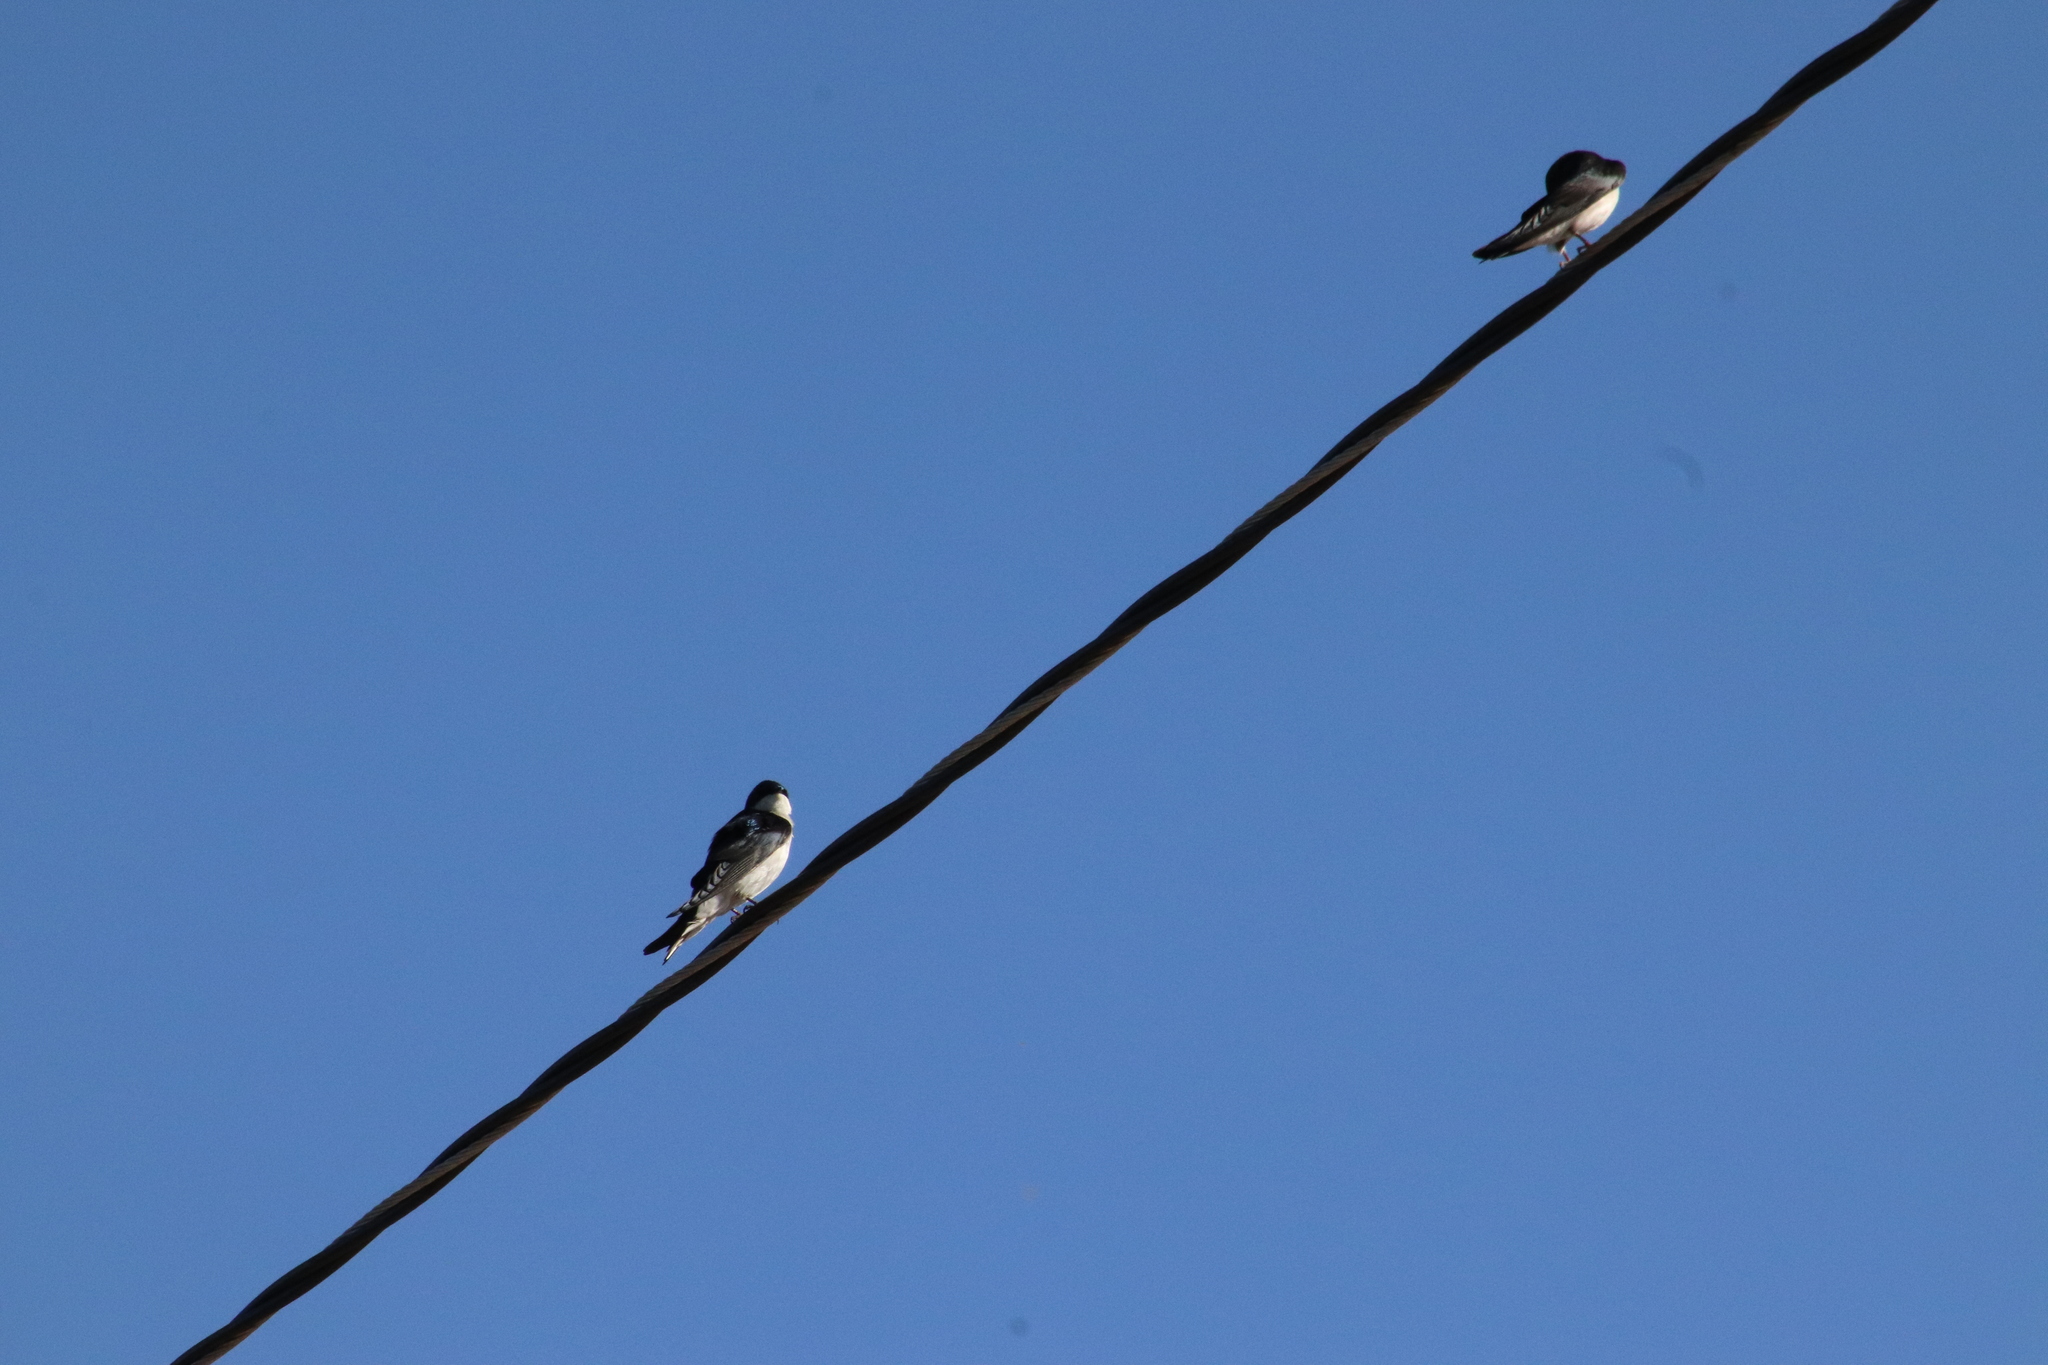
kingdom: Animalia
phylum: Chordata
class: Aves
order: Passeriformes
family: Hirundinidae
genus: Tachycineta
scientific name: Tachycineta bicolor
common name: Tree swallow
